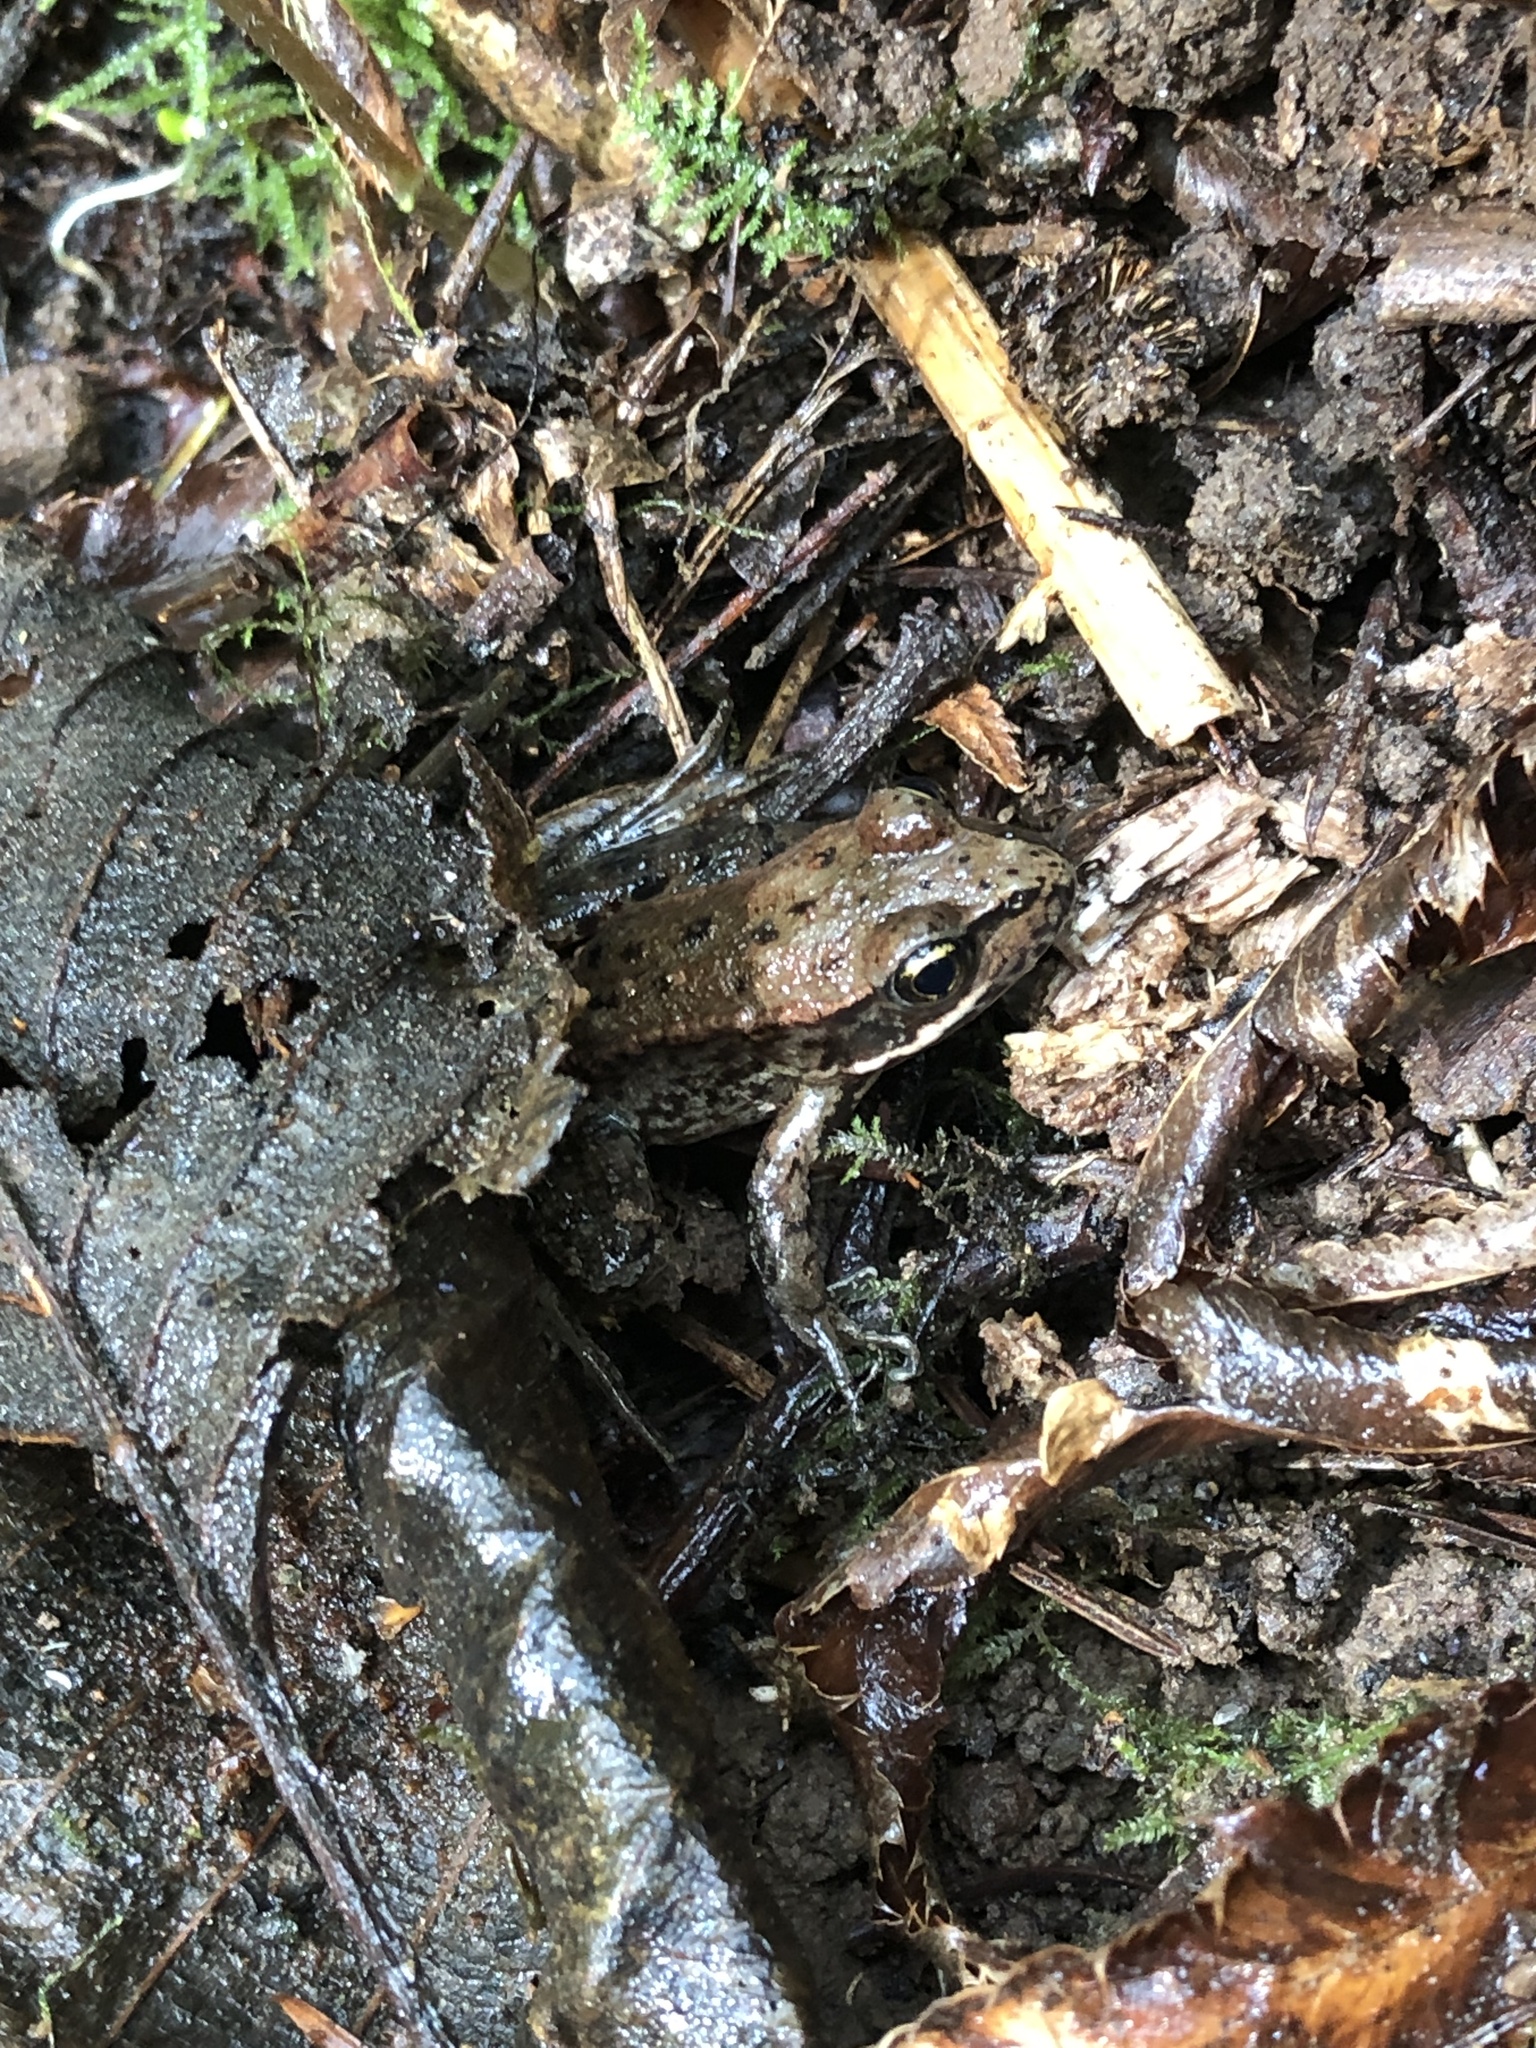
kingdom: Animalia
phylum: Chordata
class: Amphibia
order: Anura
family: Ranidae
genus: Rana
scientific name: Rana aurora
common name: Red-legged frog
